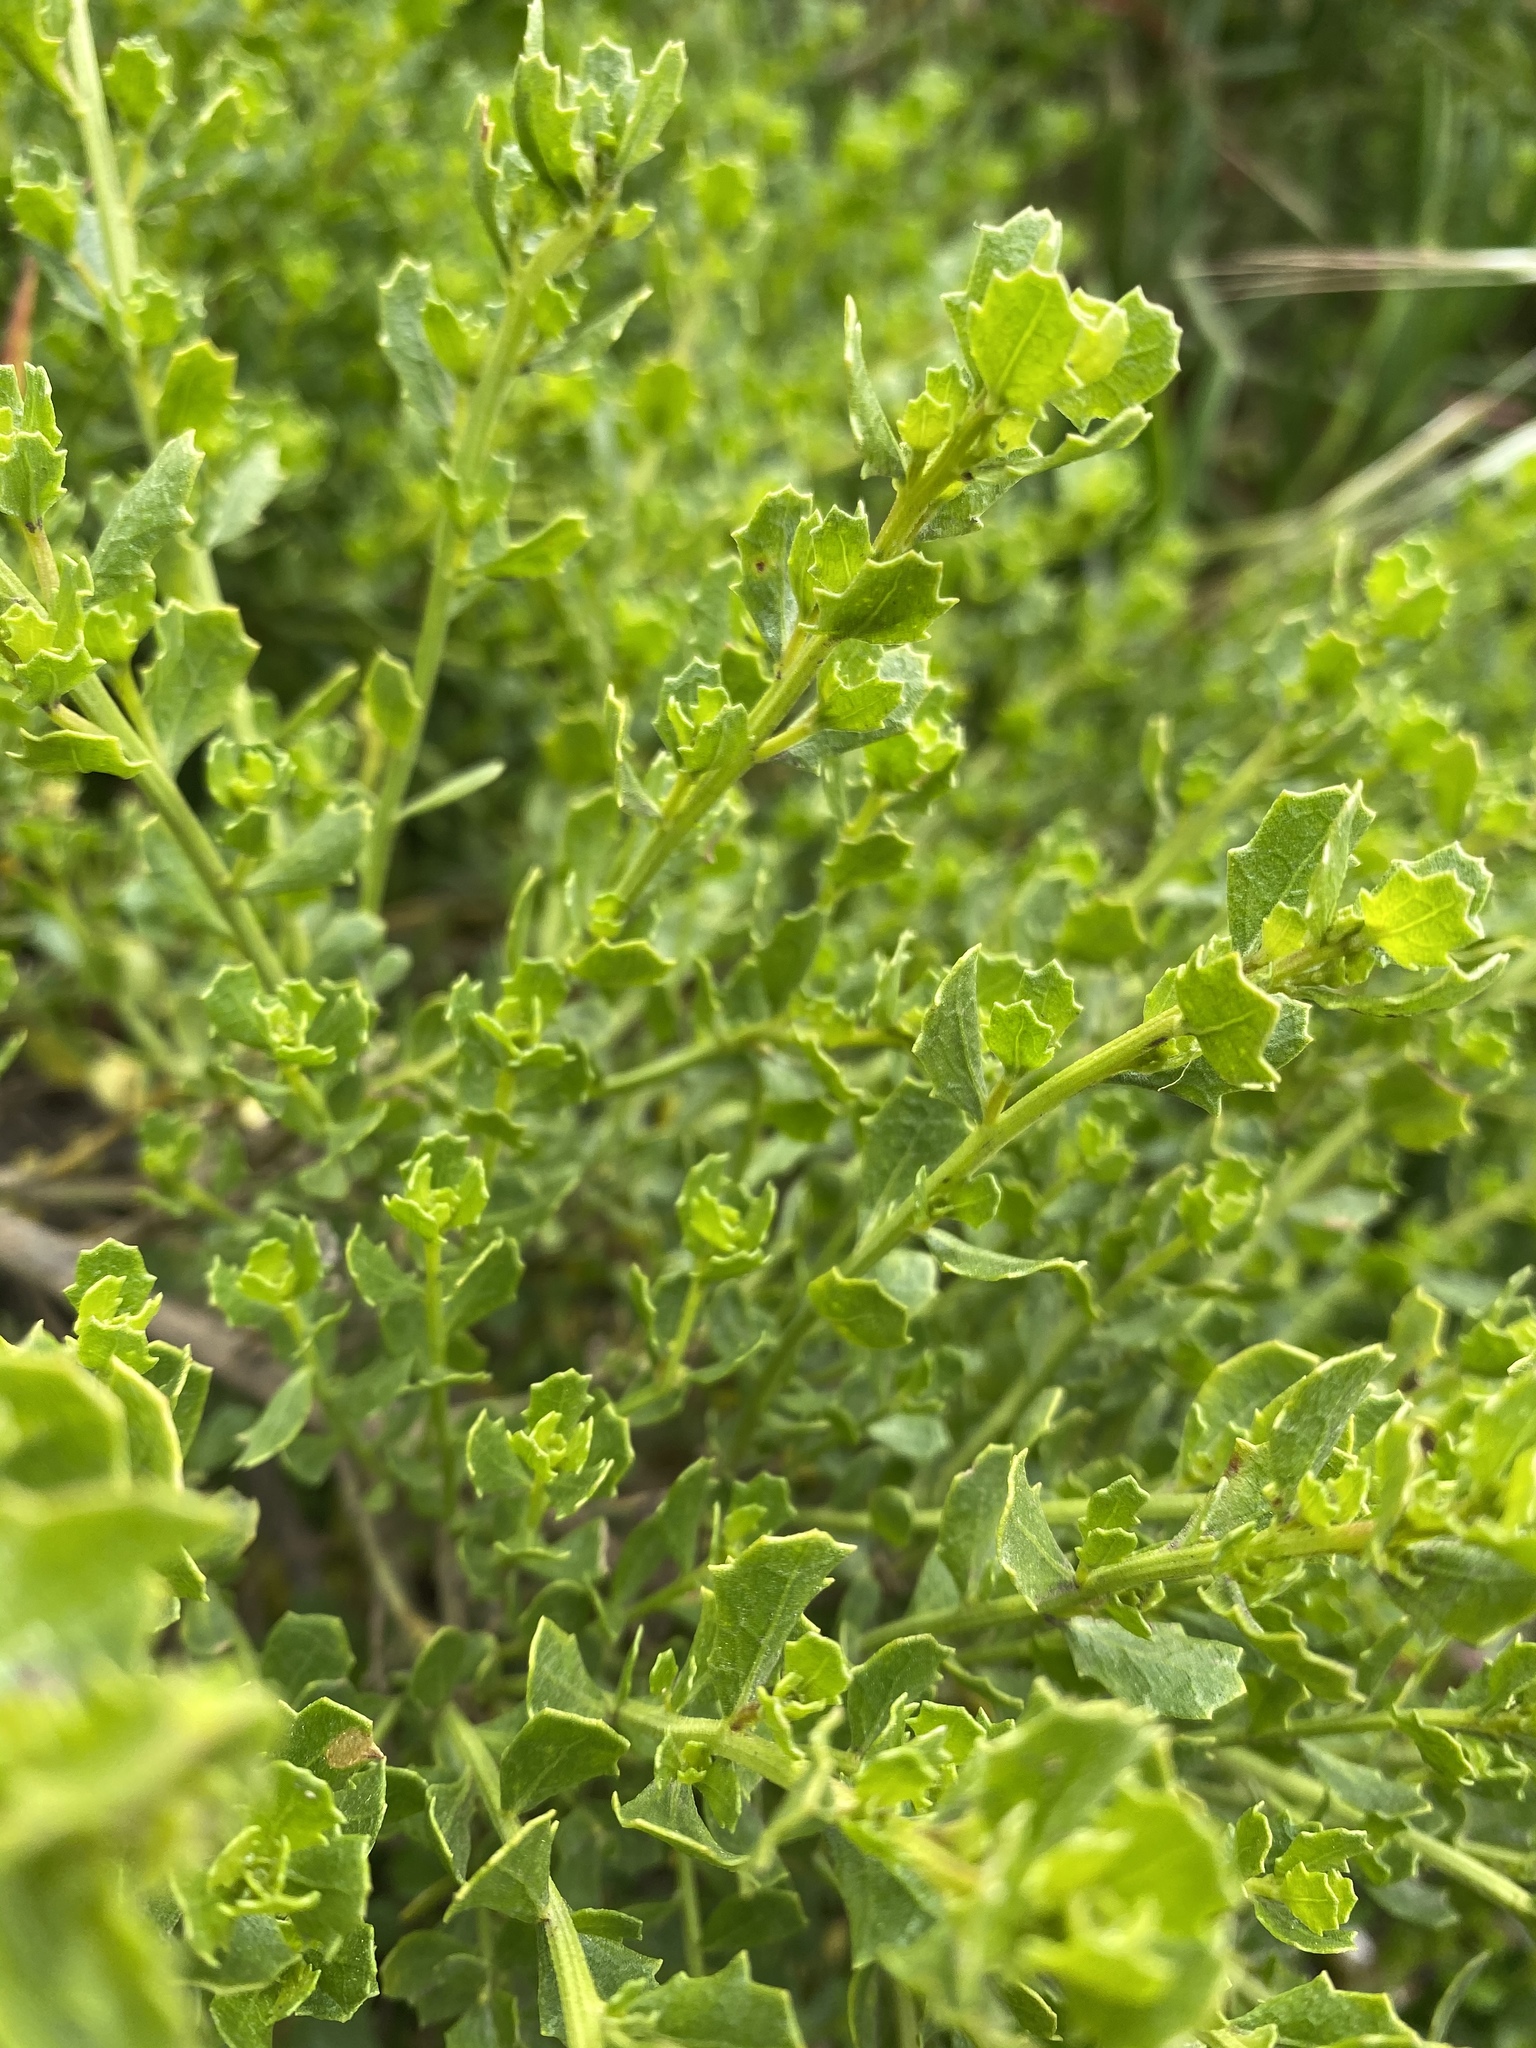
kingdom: Plantae
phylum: Tracheophyta
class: Magnoliopsida
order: Asterales
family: Asteraceae
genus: Baccharis
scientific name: Baccharis pilularis
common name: Coyotebrush
